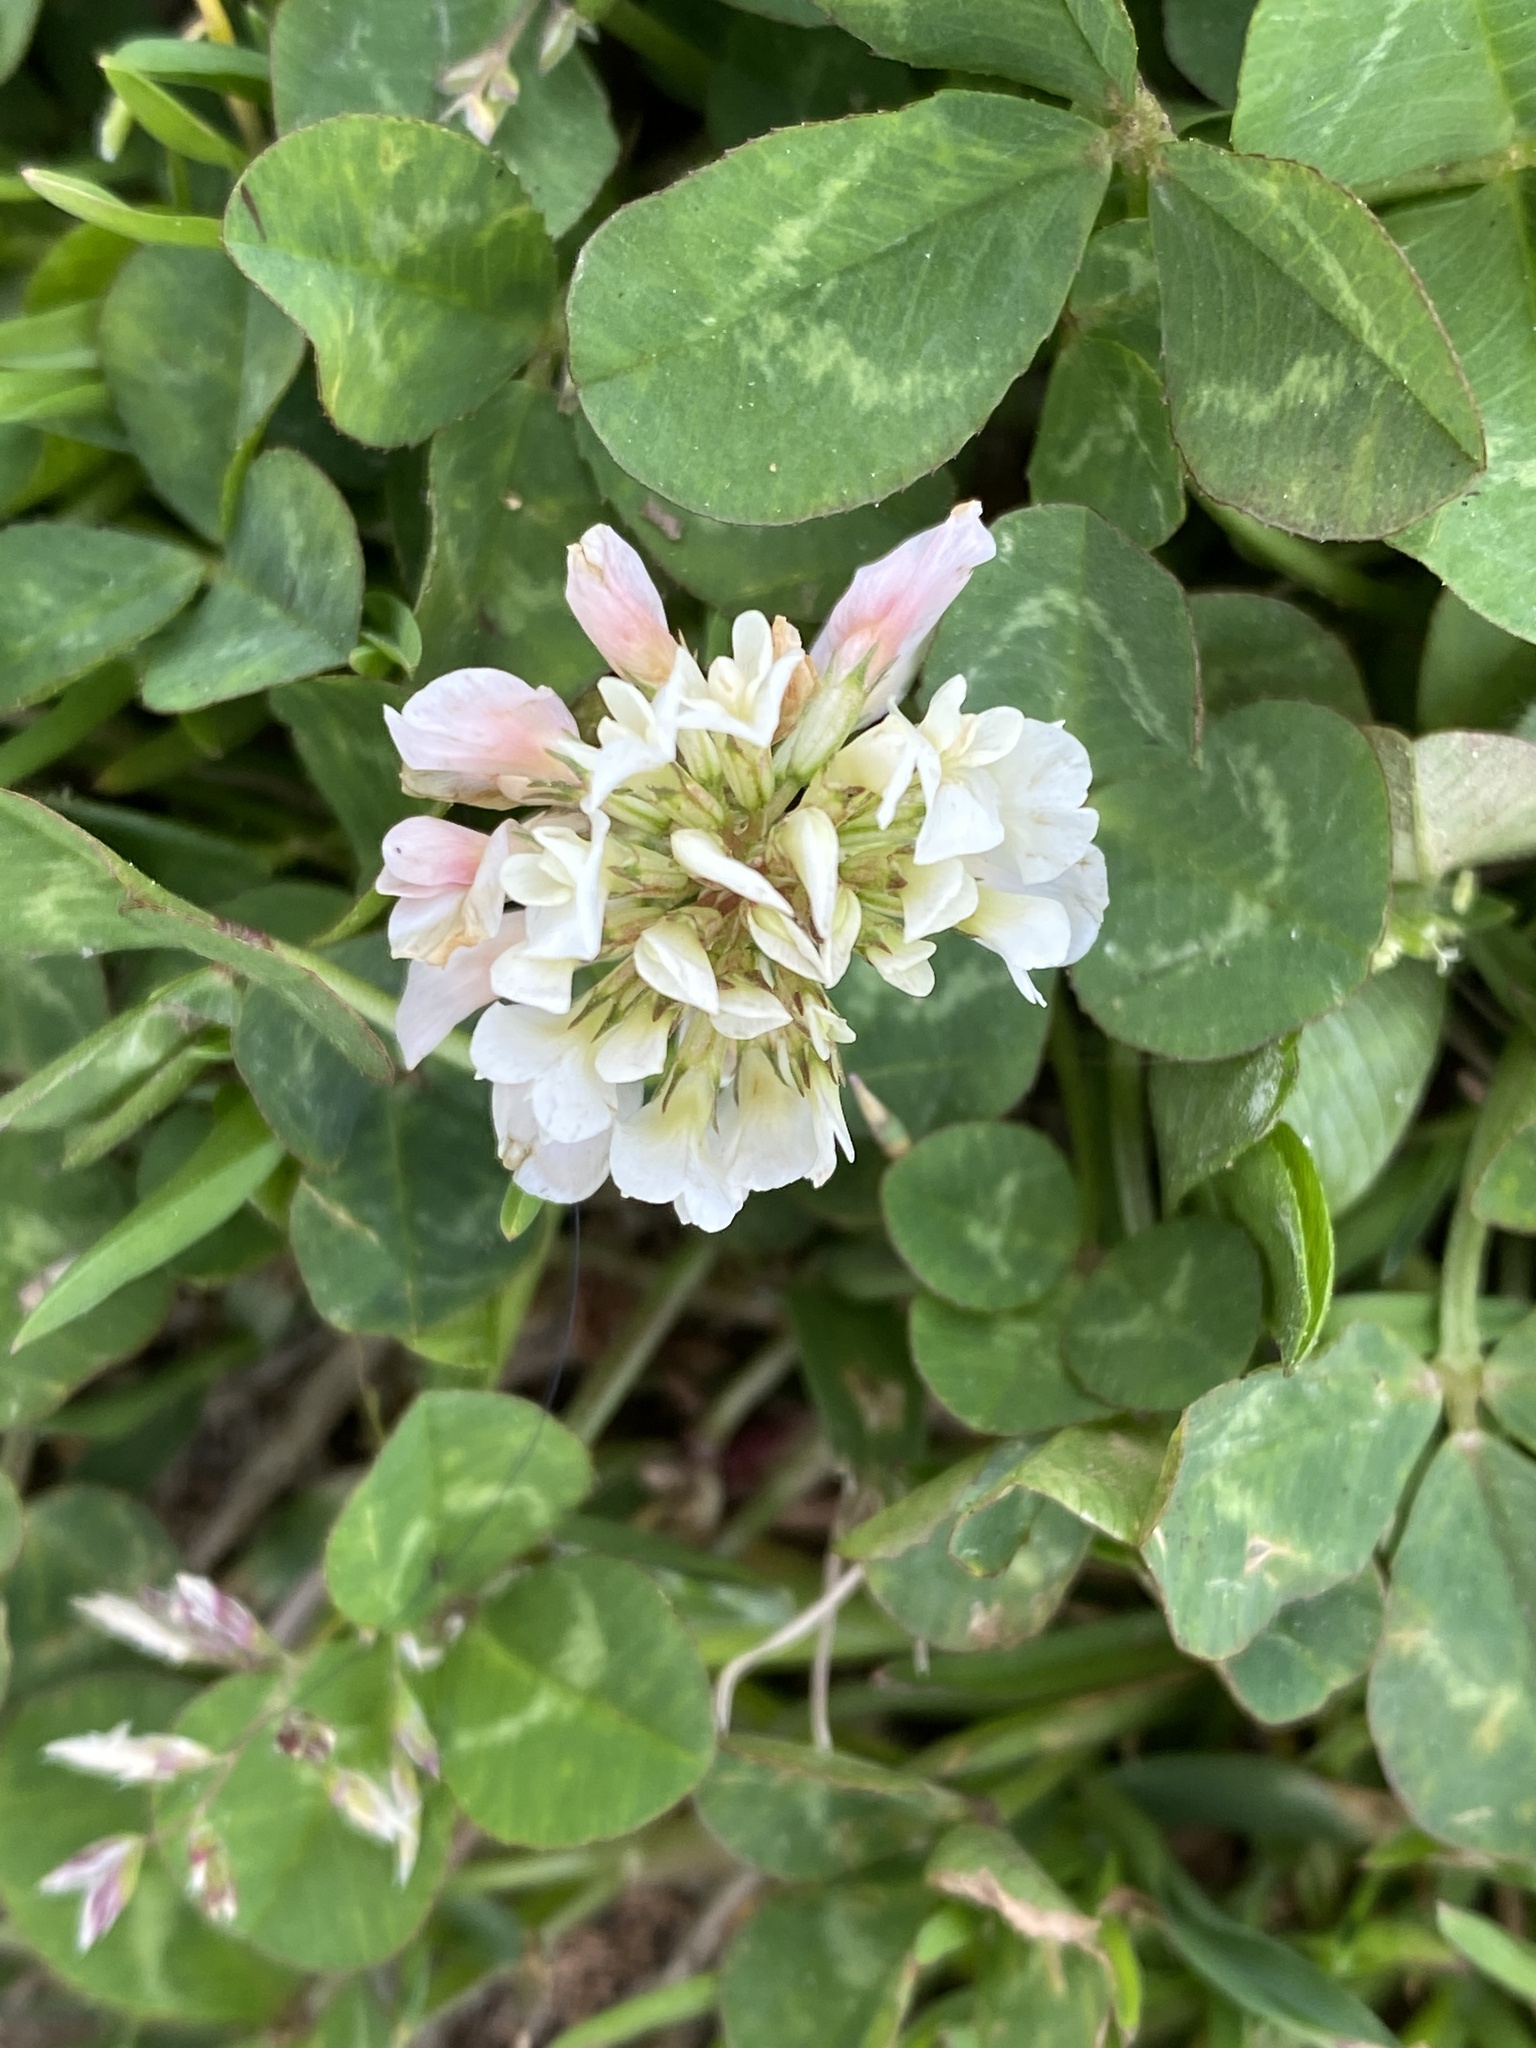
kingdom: Plantae
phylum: Tracheophyta
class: Magnoliopsida
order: Fabales
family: Fabaceae
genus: Trifolium
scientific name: Trifolium repens
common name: White clover
